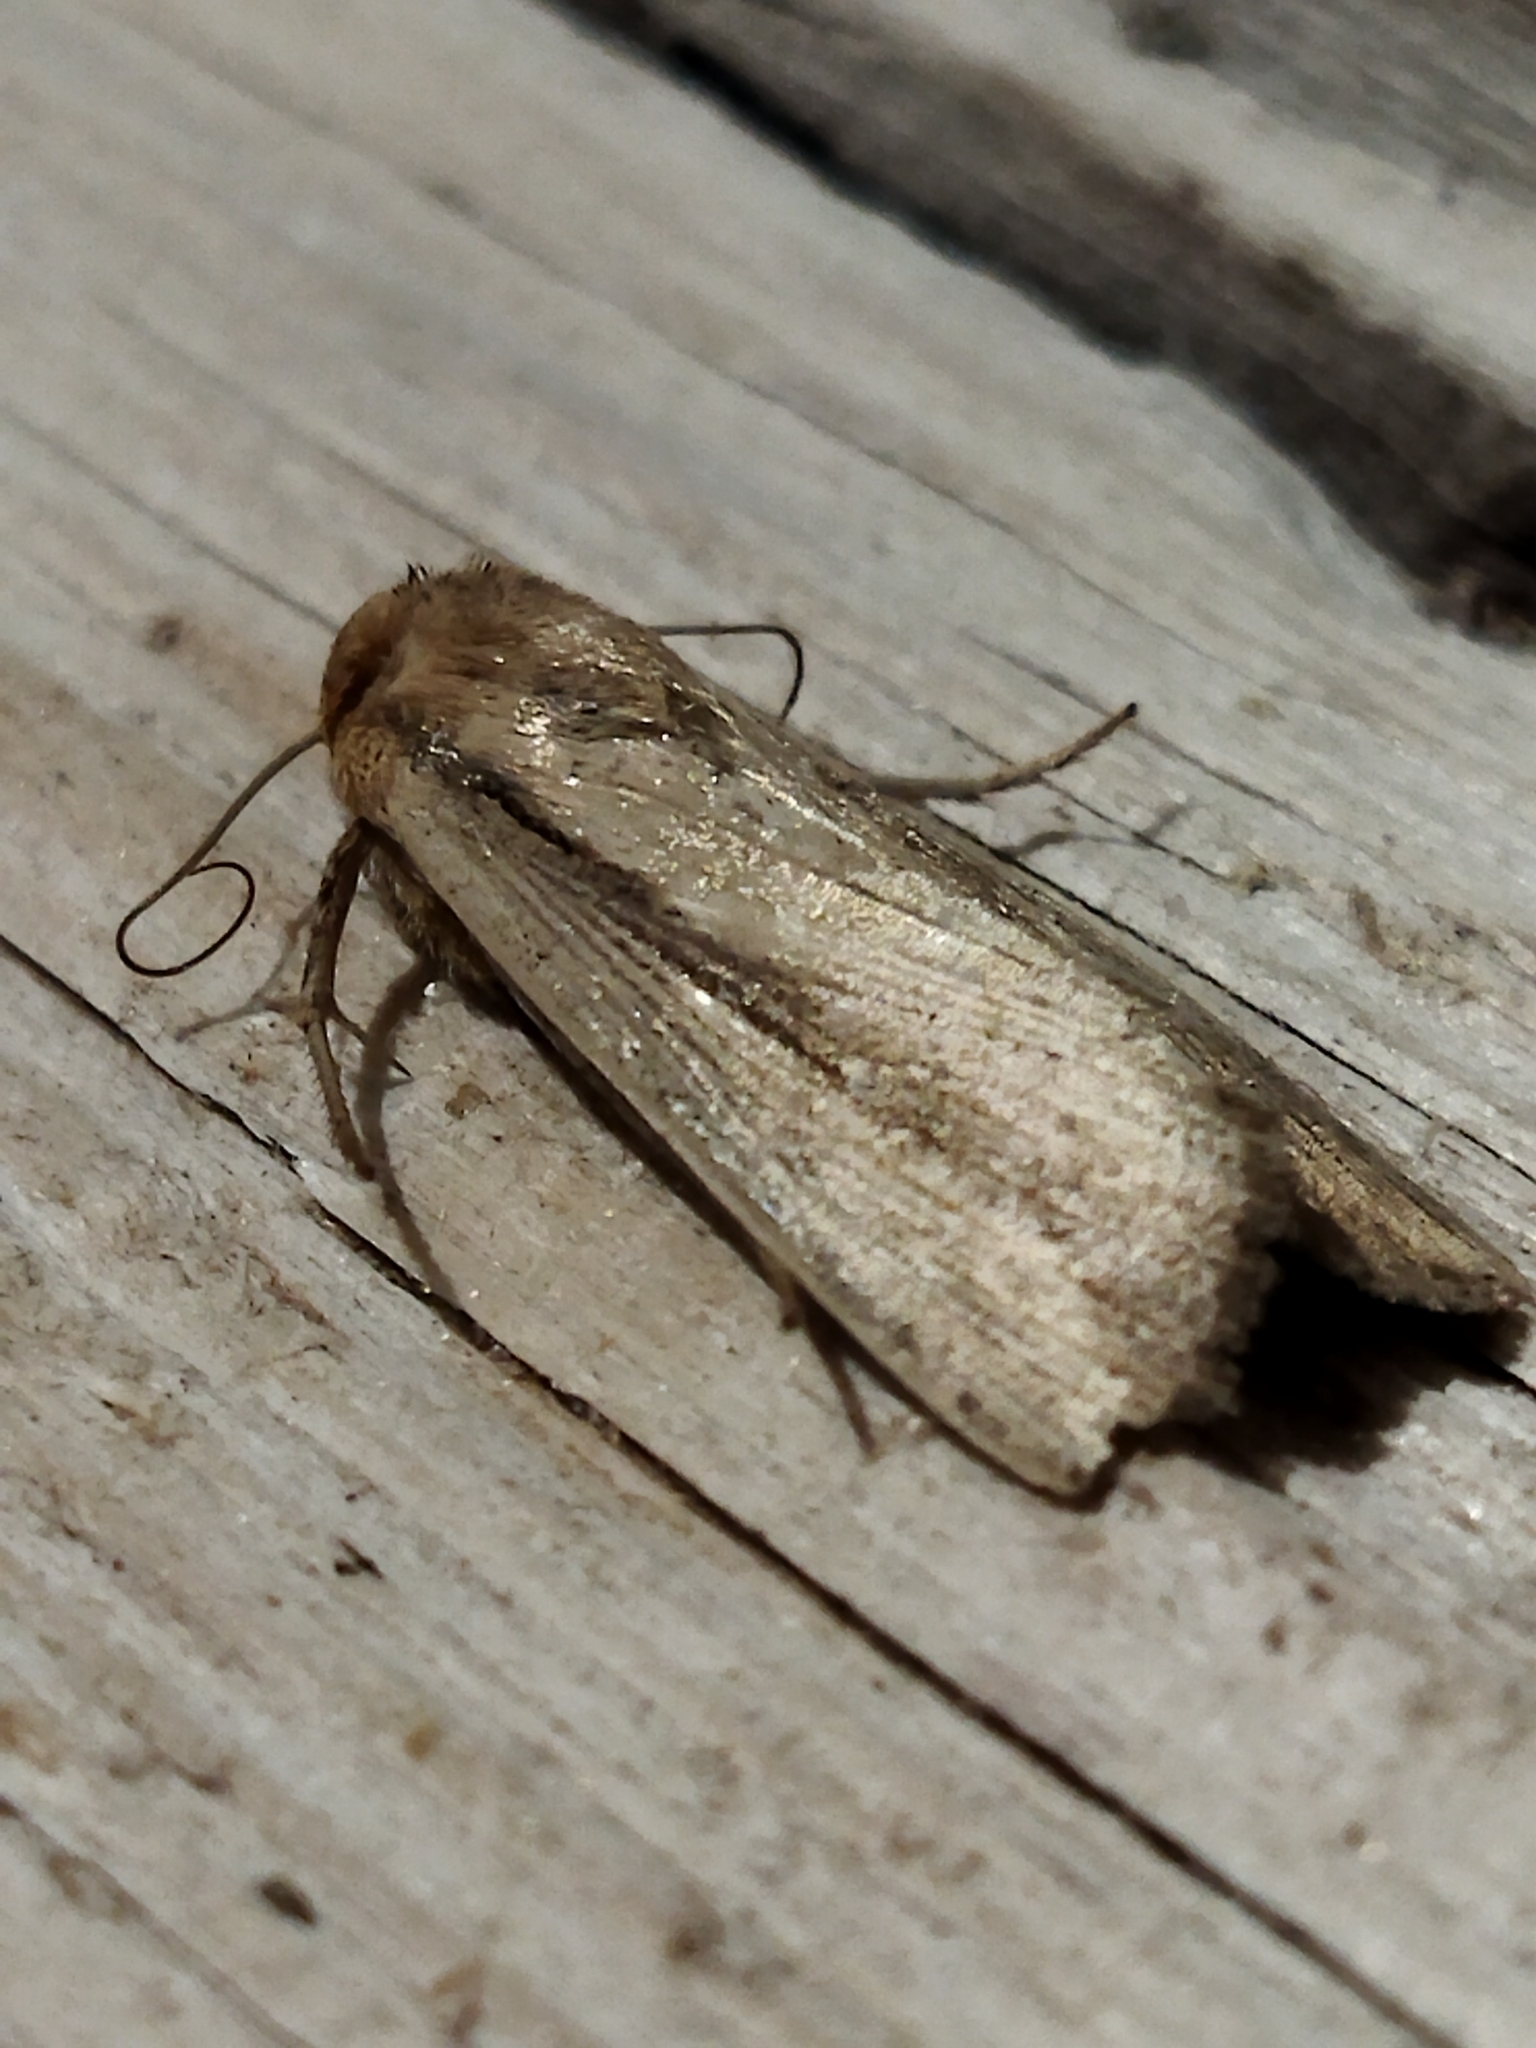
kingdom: Animalia
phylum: Arthropoda
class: Insecta
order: Lepidoptera
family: Noctuidae
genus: Leucania
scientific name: Leucania loreyi
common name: The cosmopolitan
